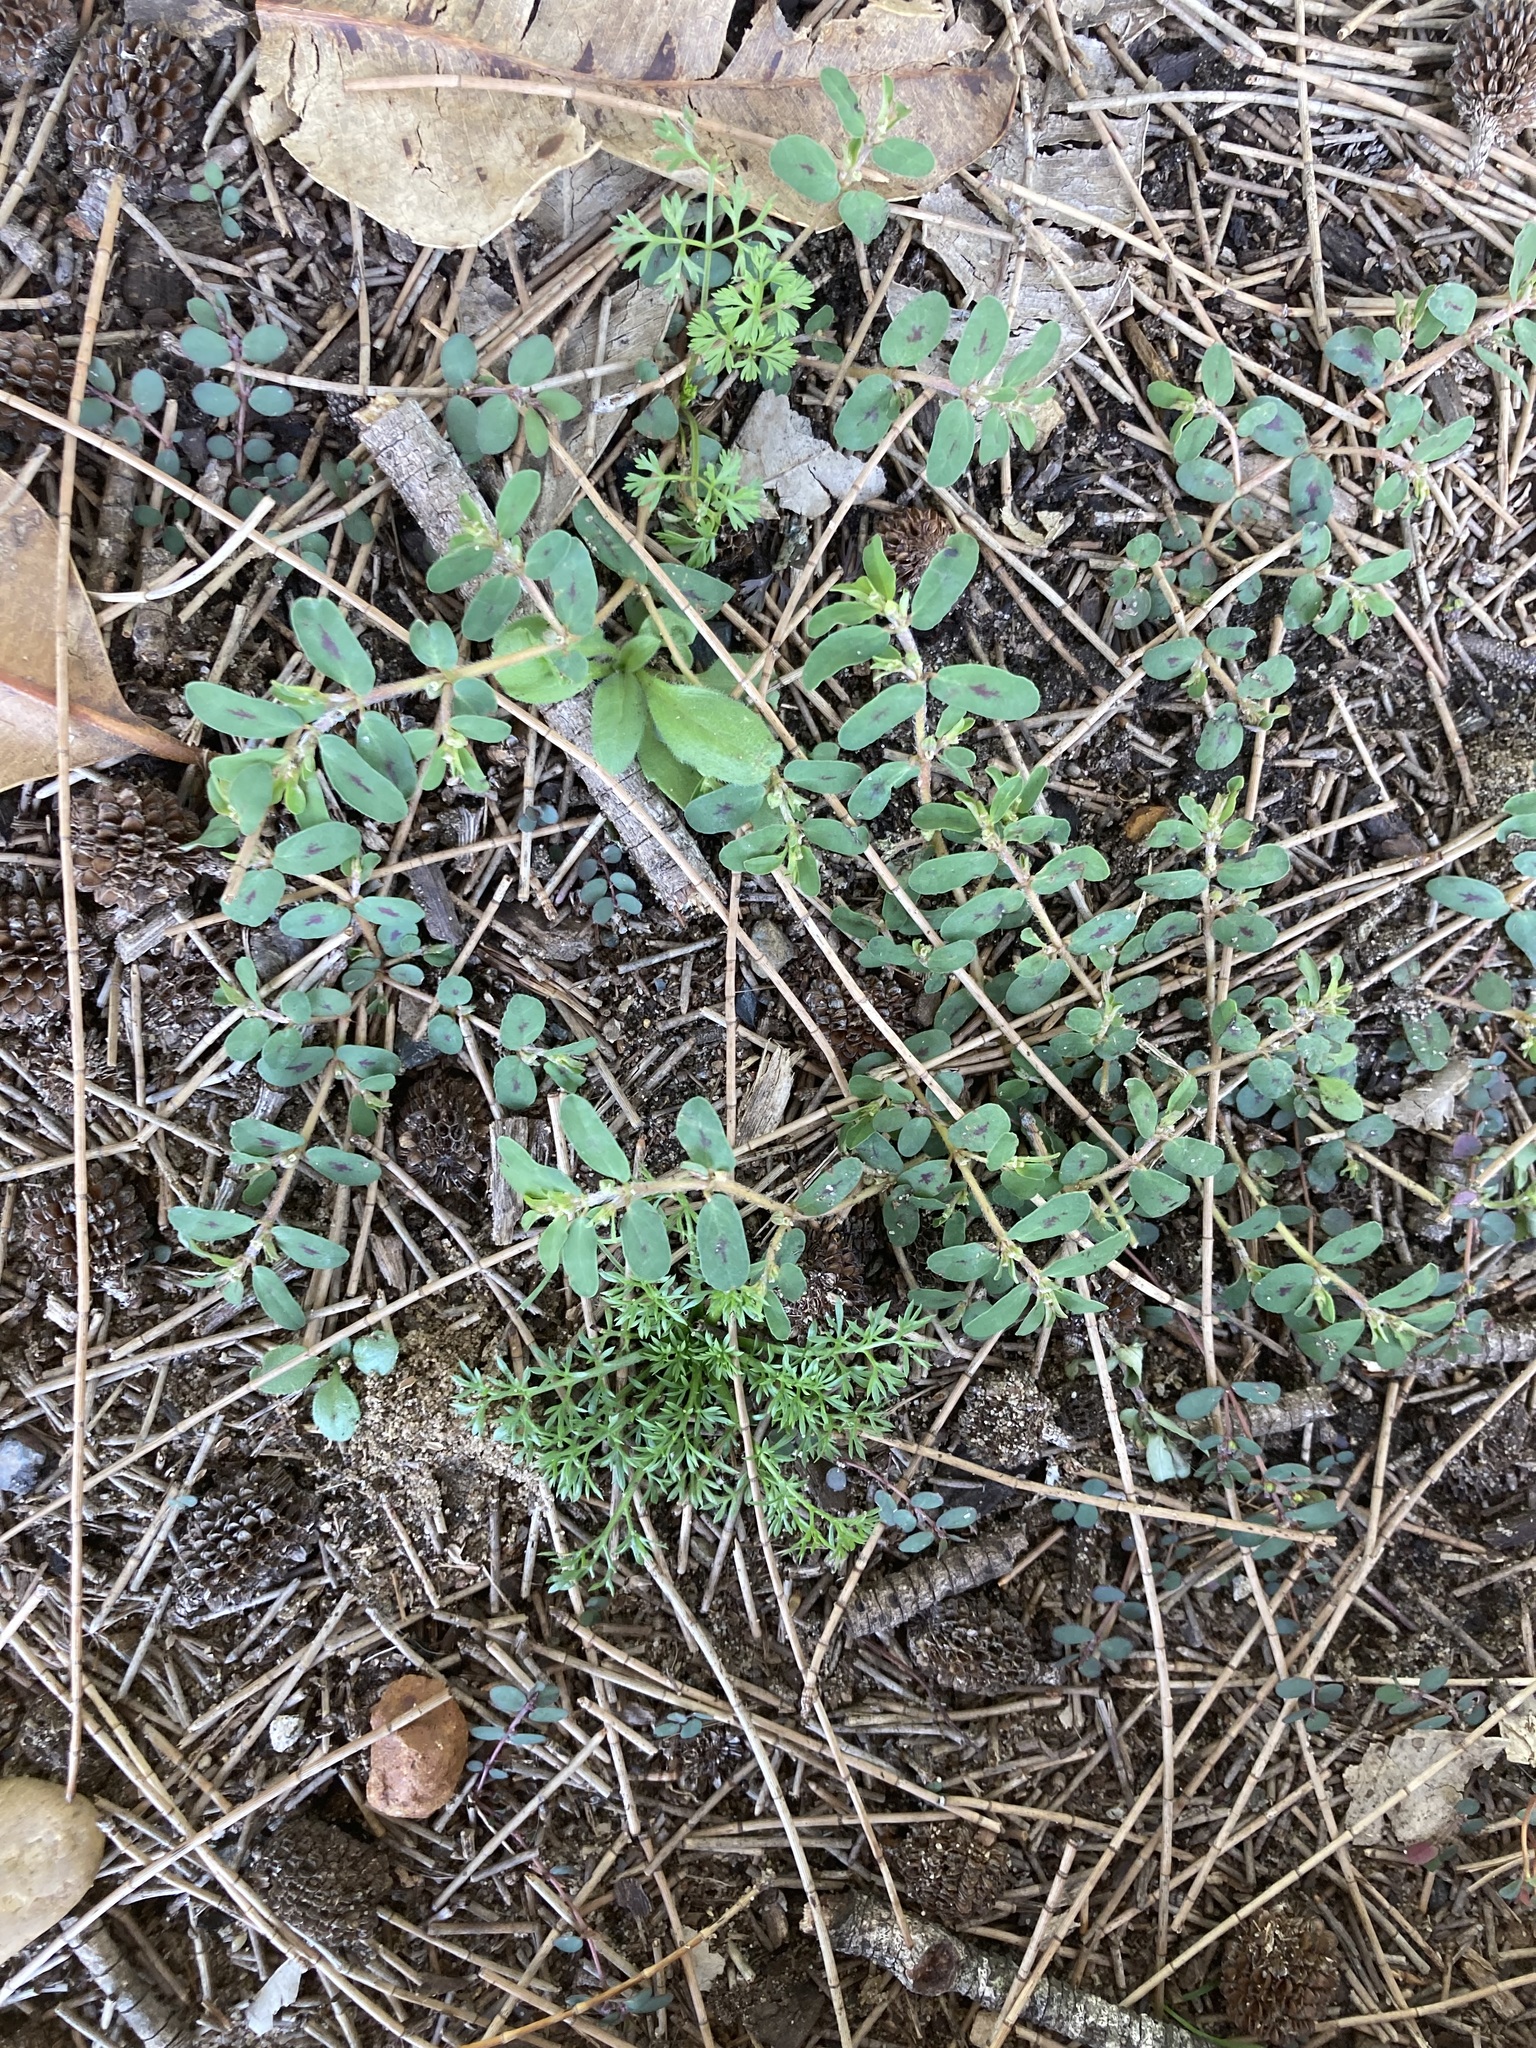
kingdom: Plantae
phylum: Tracheophyta
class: Magnoliopsida
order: Malpighiales
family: Euphorbiaceae
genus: Euphorbia
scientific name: Euphorbia maculata
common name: Spotted spurge
